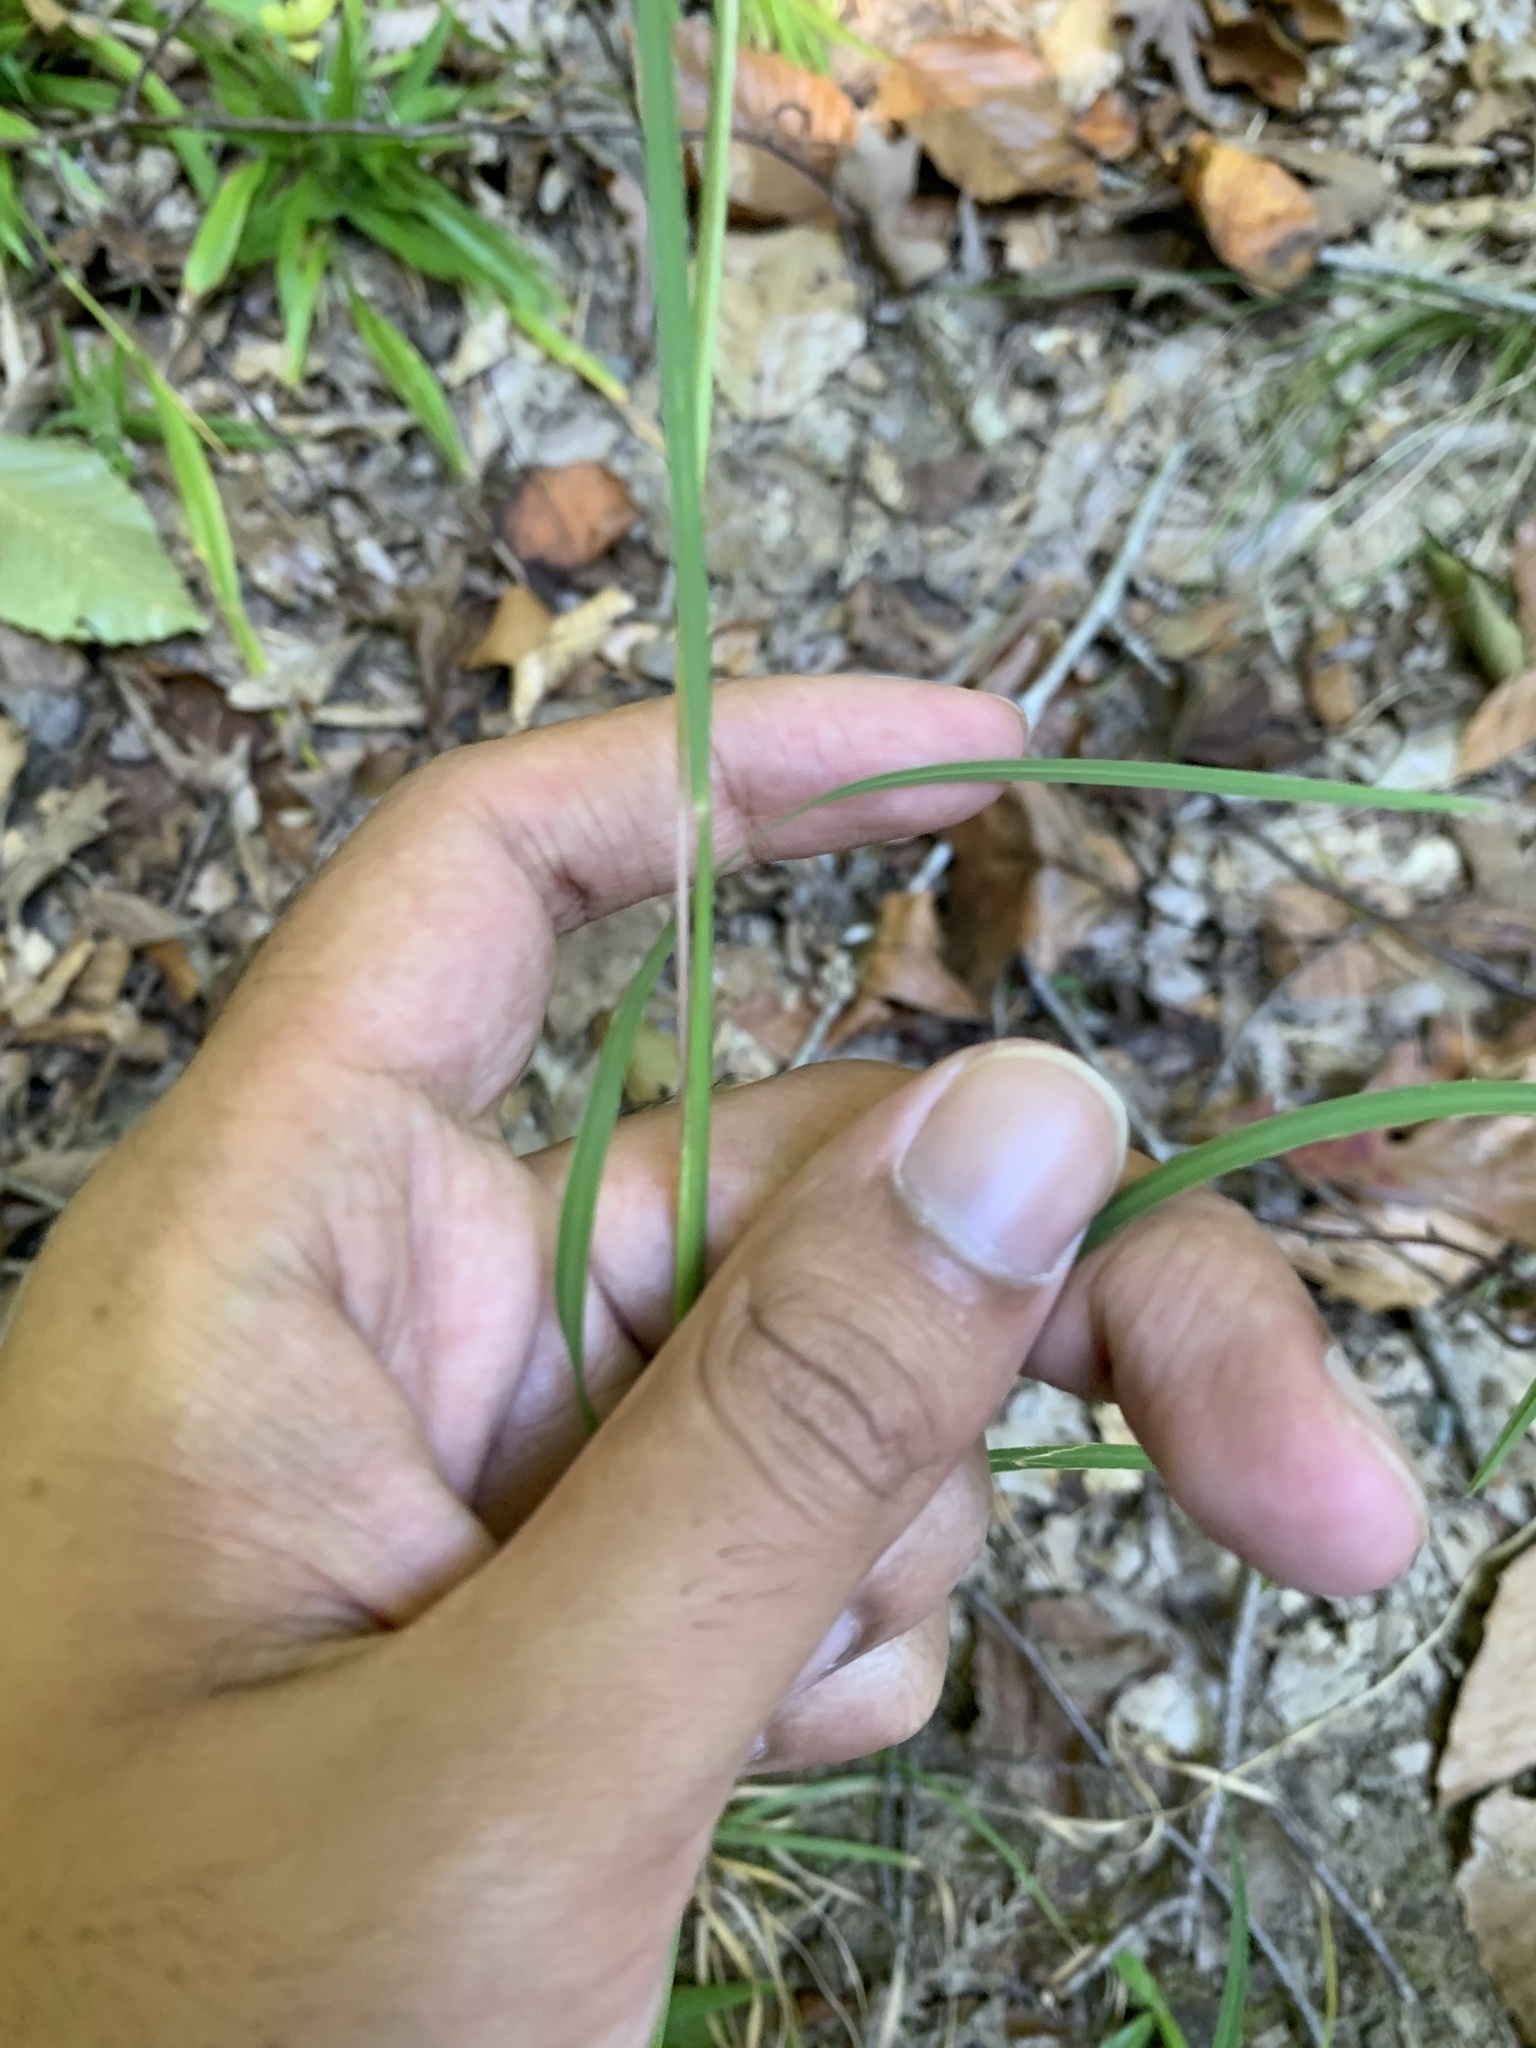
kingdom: Plantae
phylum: Tracheophyta
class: Liliopsida
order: Poales
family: Poaceae
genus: Andropogon
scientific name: Andropogon virginicus
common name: Broomsedge bluestem
